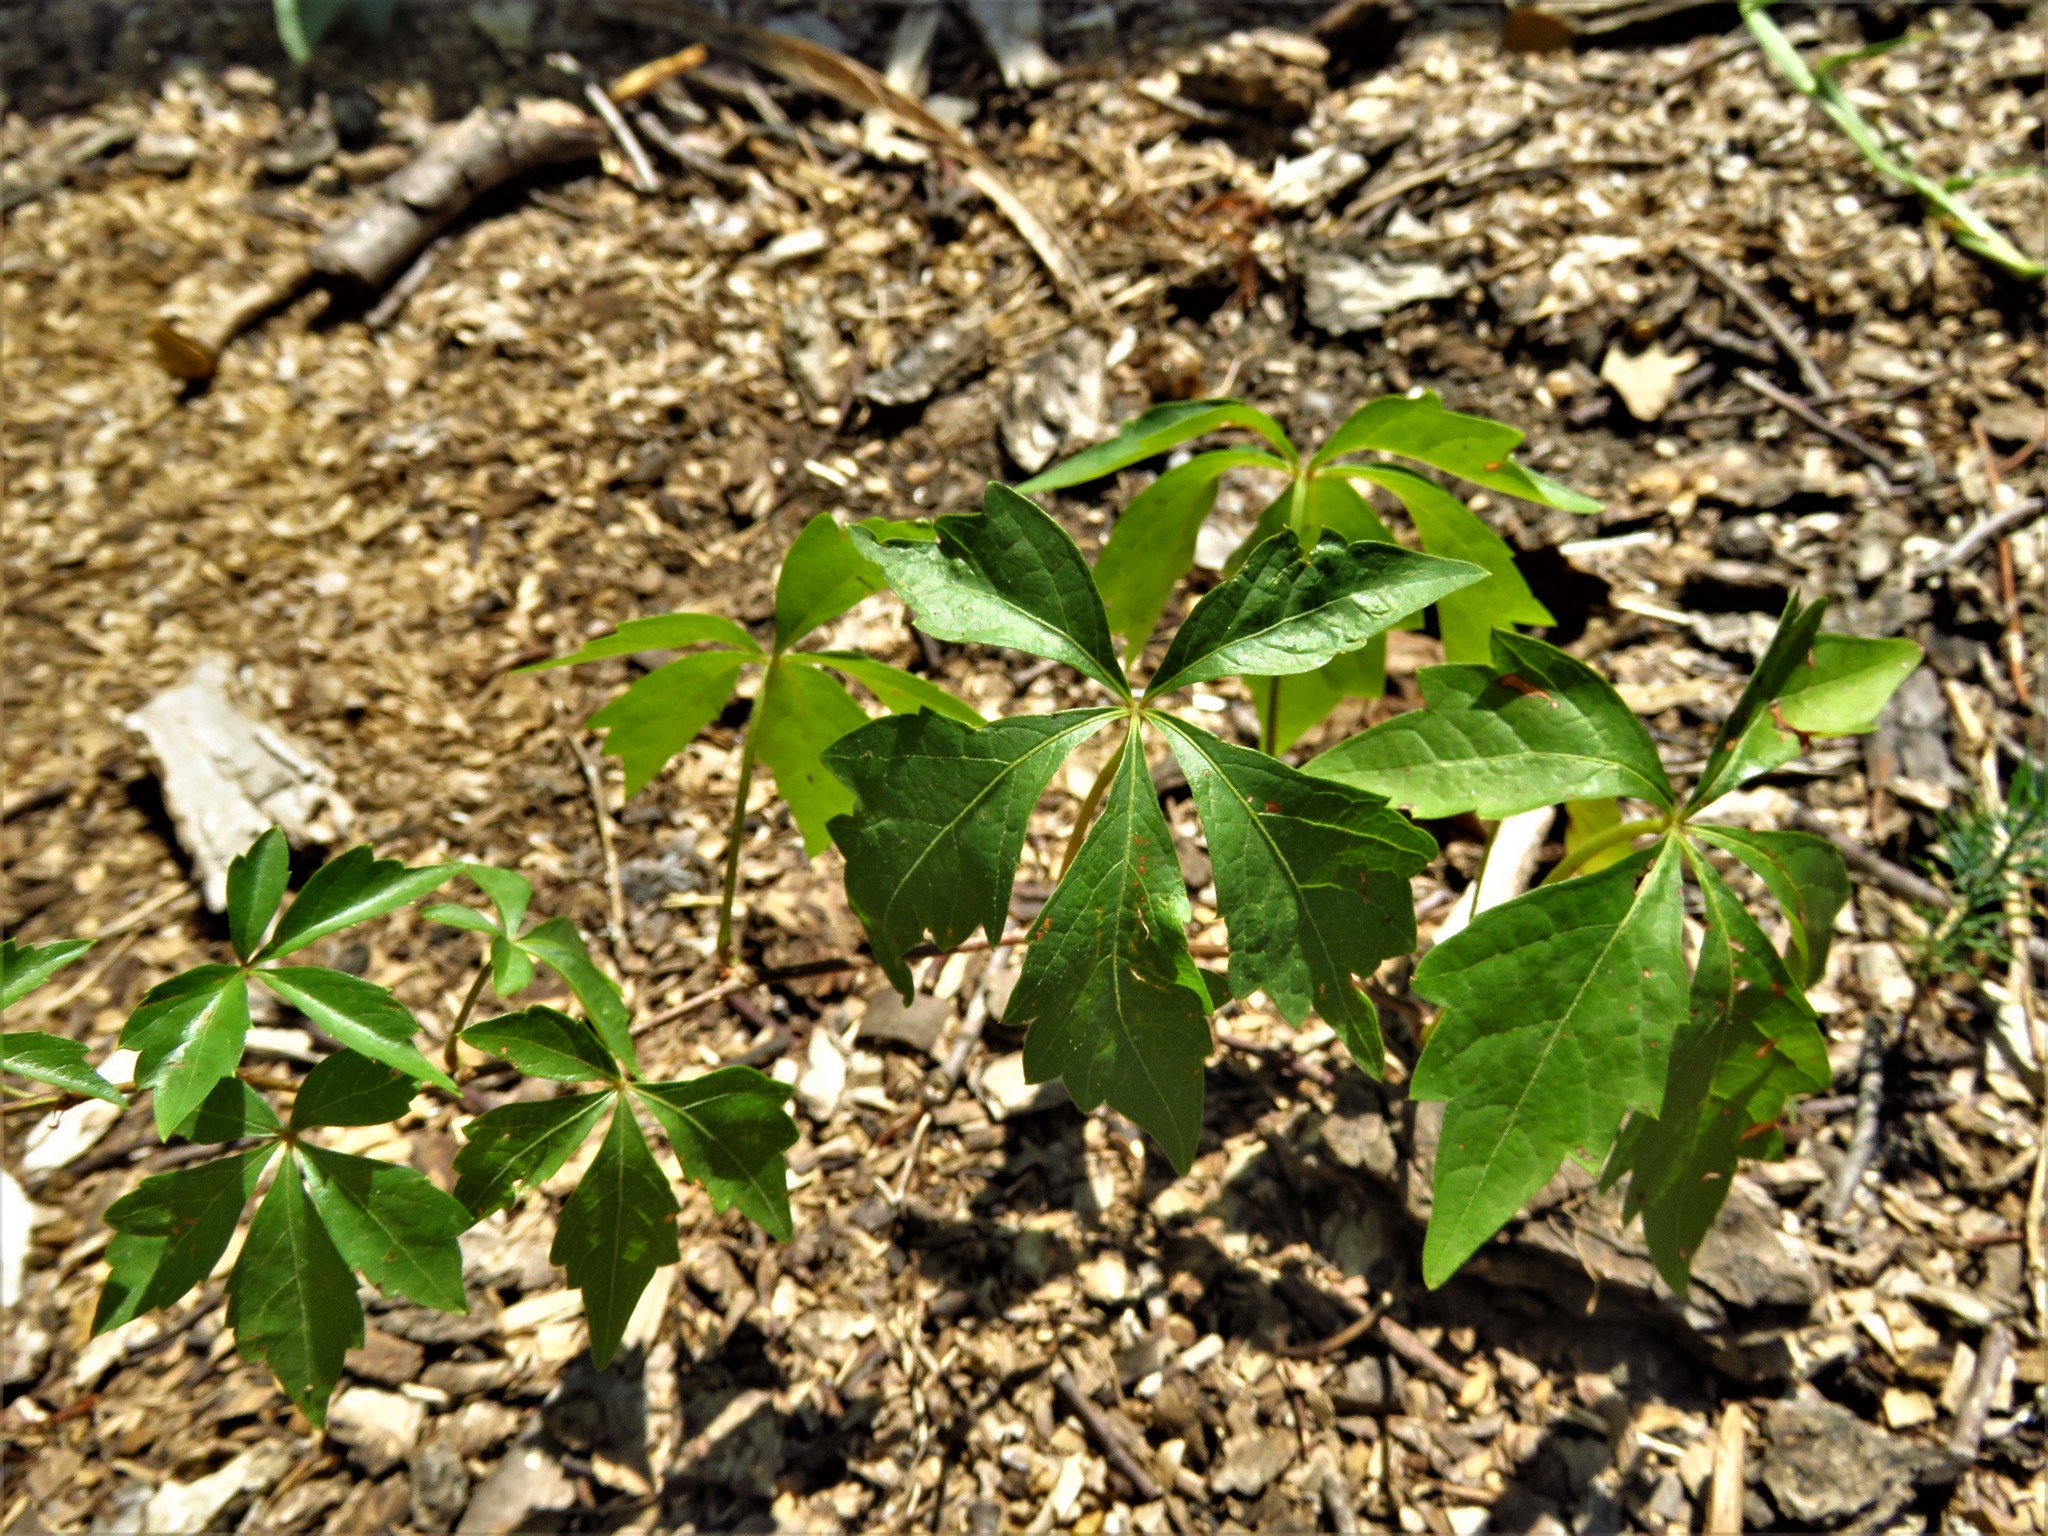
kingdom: Plantae
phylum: Tracheophyta
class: Magnoliopsida
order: Vitales
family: Vitaceae
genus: Parthenocissus
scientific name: Parthenocissus quinquefolia
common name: Virginia-creeper
